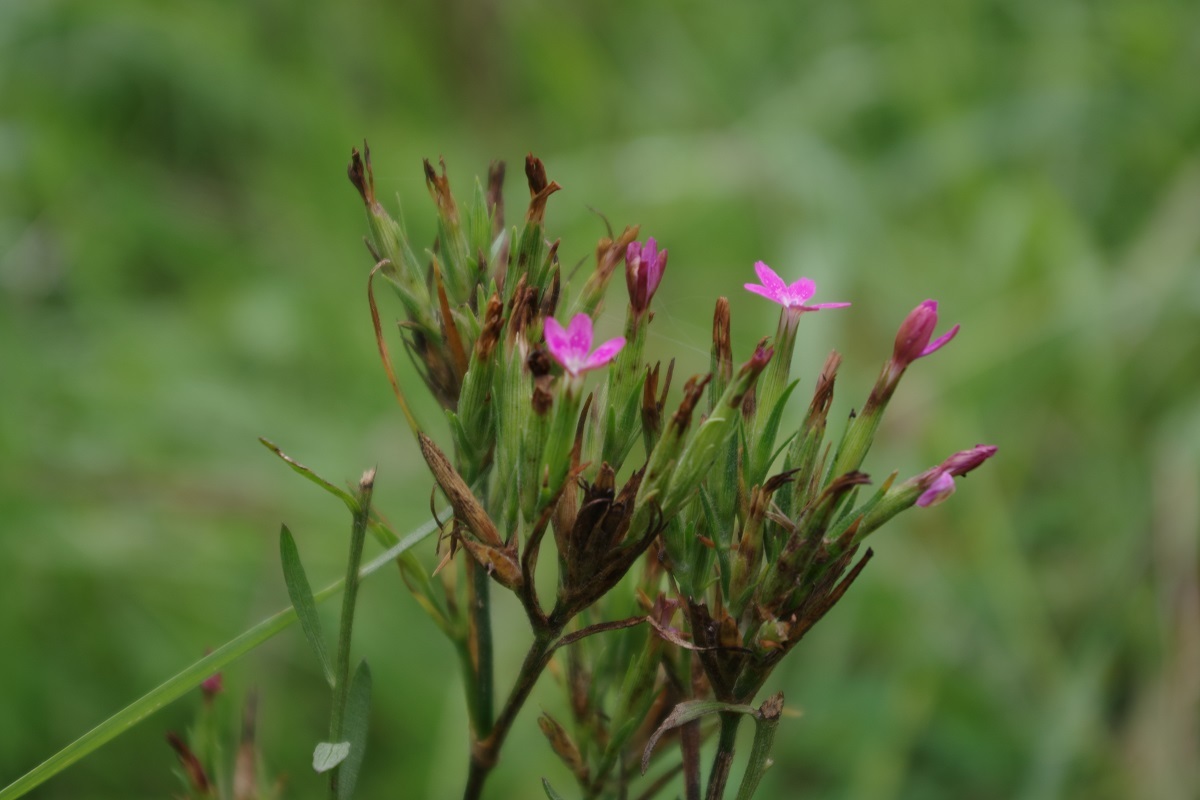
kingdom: Plantae
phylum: Tracheophyta
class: Magnoliopsida
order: Caryophyllales
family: Caryophyllaceae
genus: Dianthus
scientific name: Dianthus armeria
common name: Deptford pink
